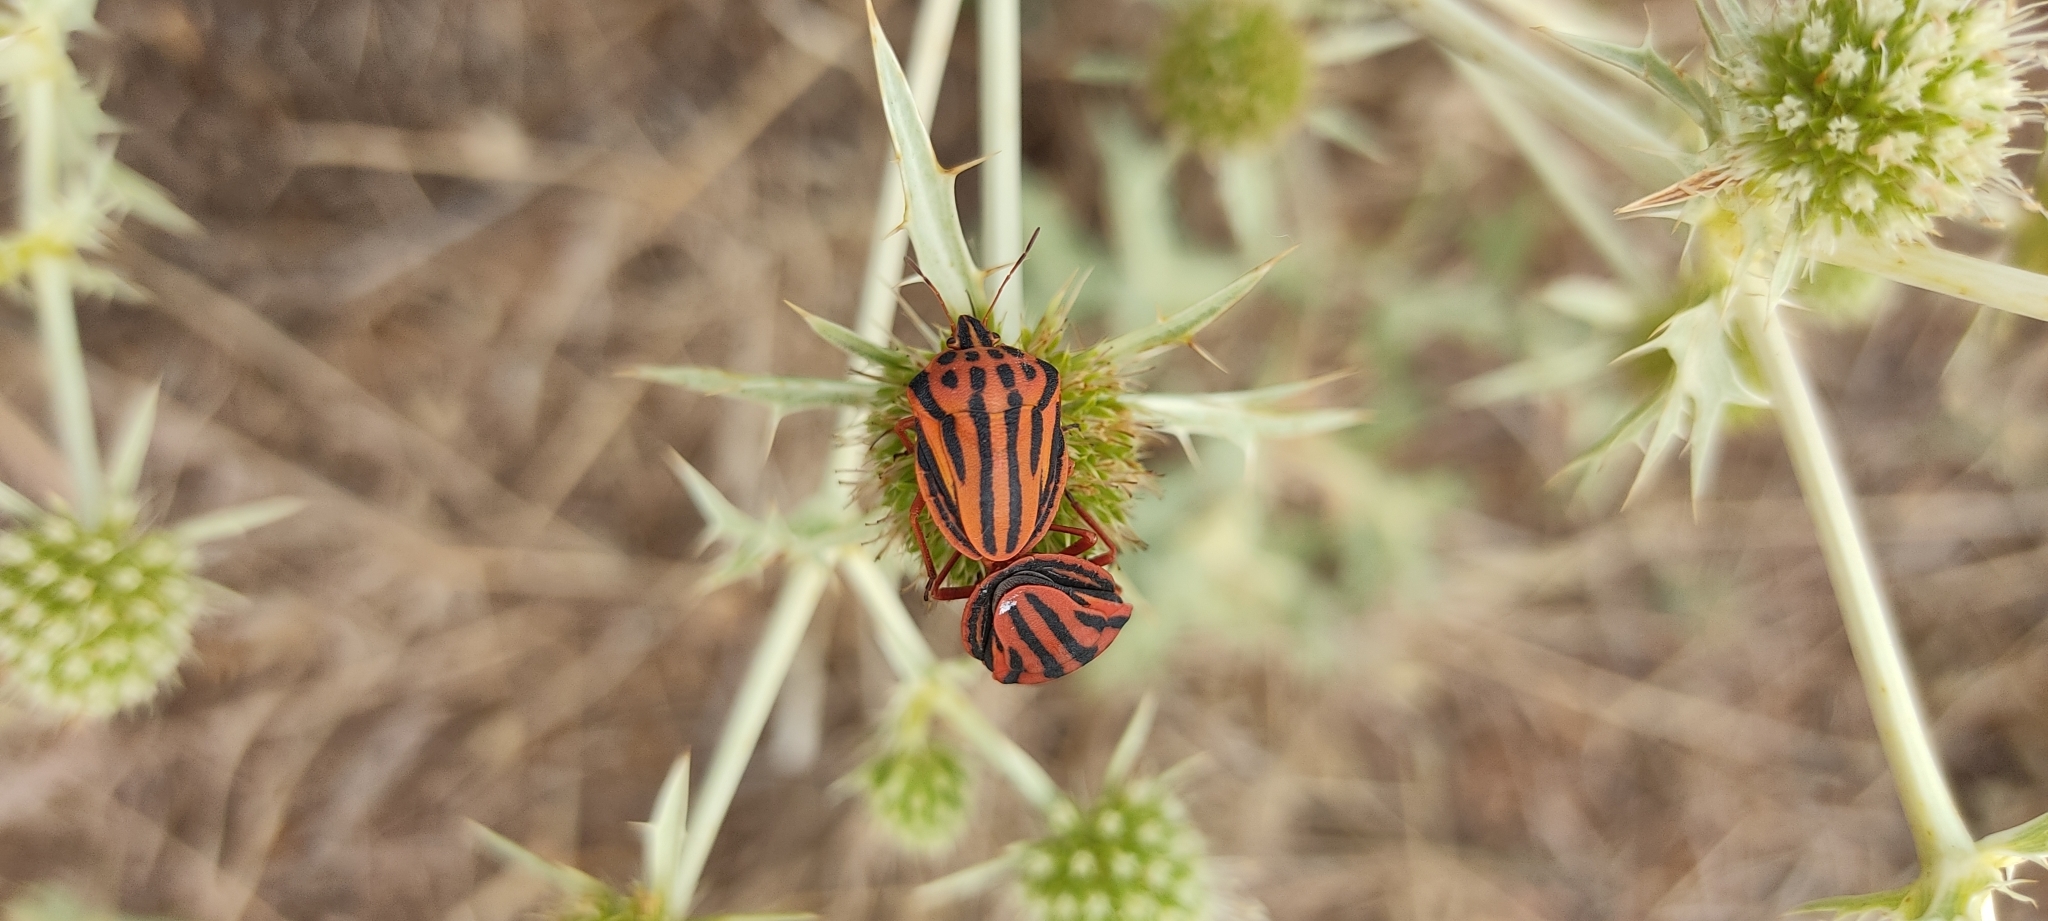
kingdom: Animalia
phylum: Arthropoda
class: Insecta
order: Hemiptera
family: Pentatomidae
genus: Graphosoma
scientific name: Graphosoma semipunctatum
